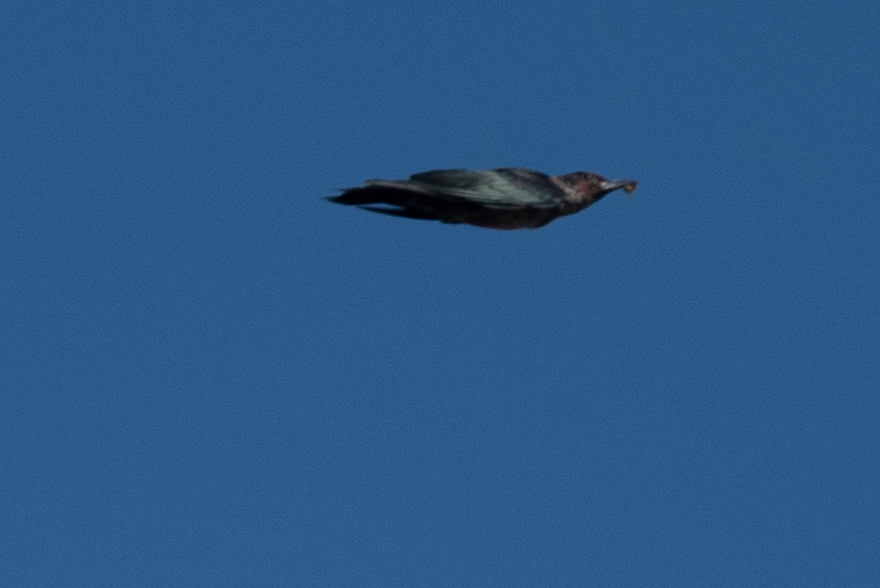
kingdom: Animalia
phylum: Chordata
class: Aves
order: Piciformes
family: Picidae
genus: Melanerpes
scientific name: Melanerpes lewis
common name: Lewis's woodpecker
